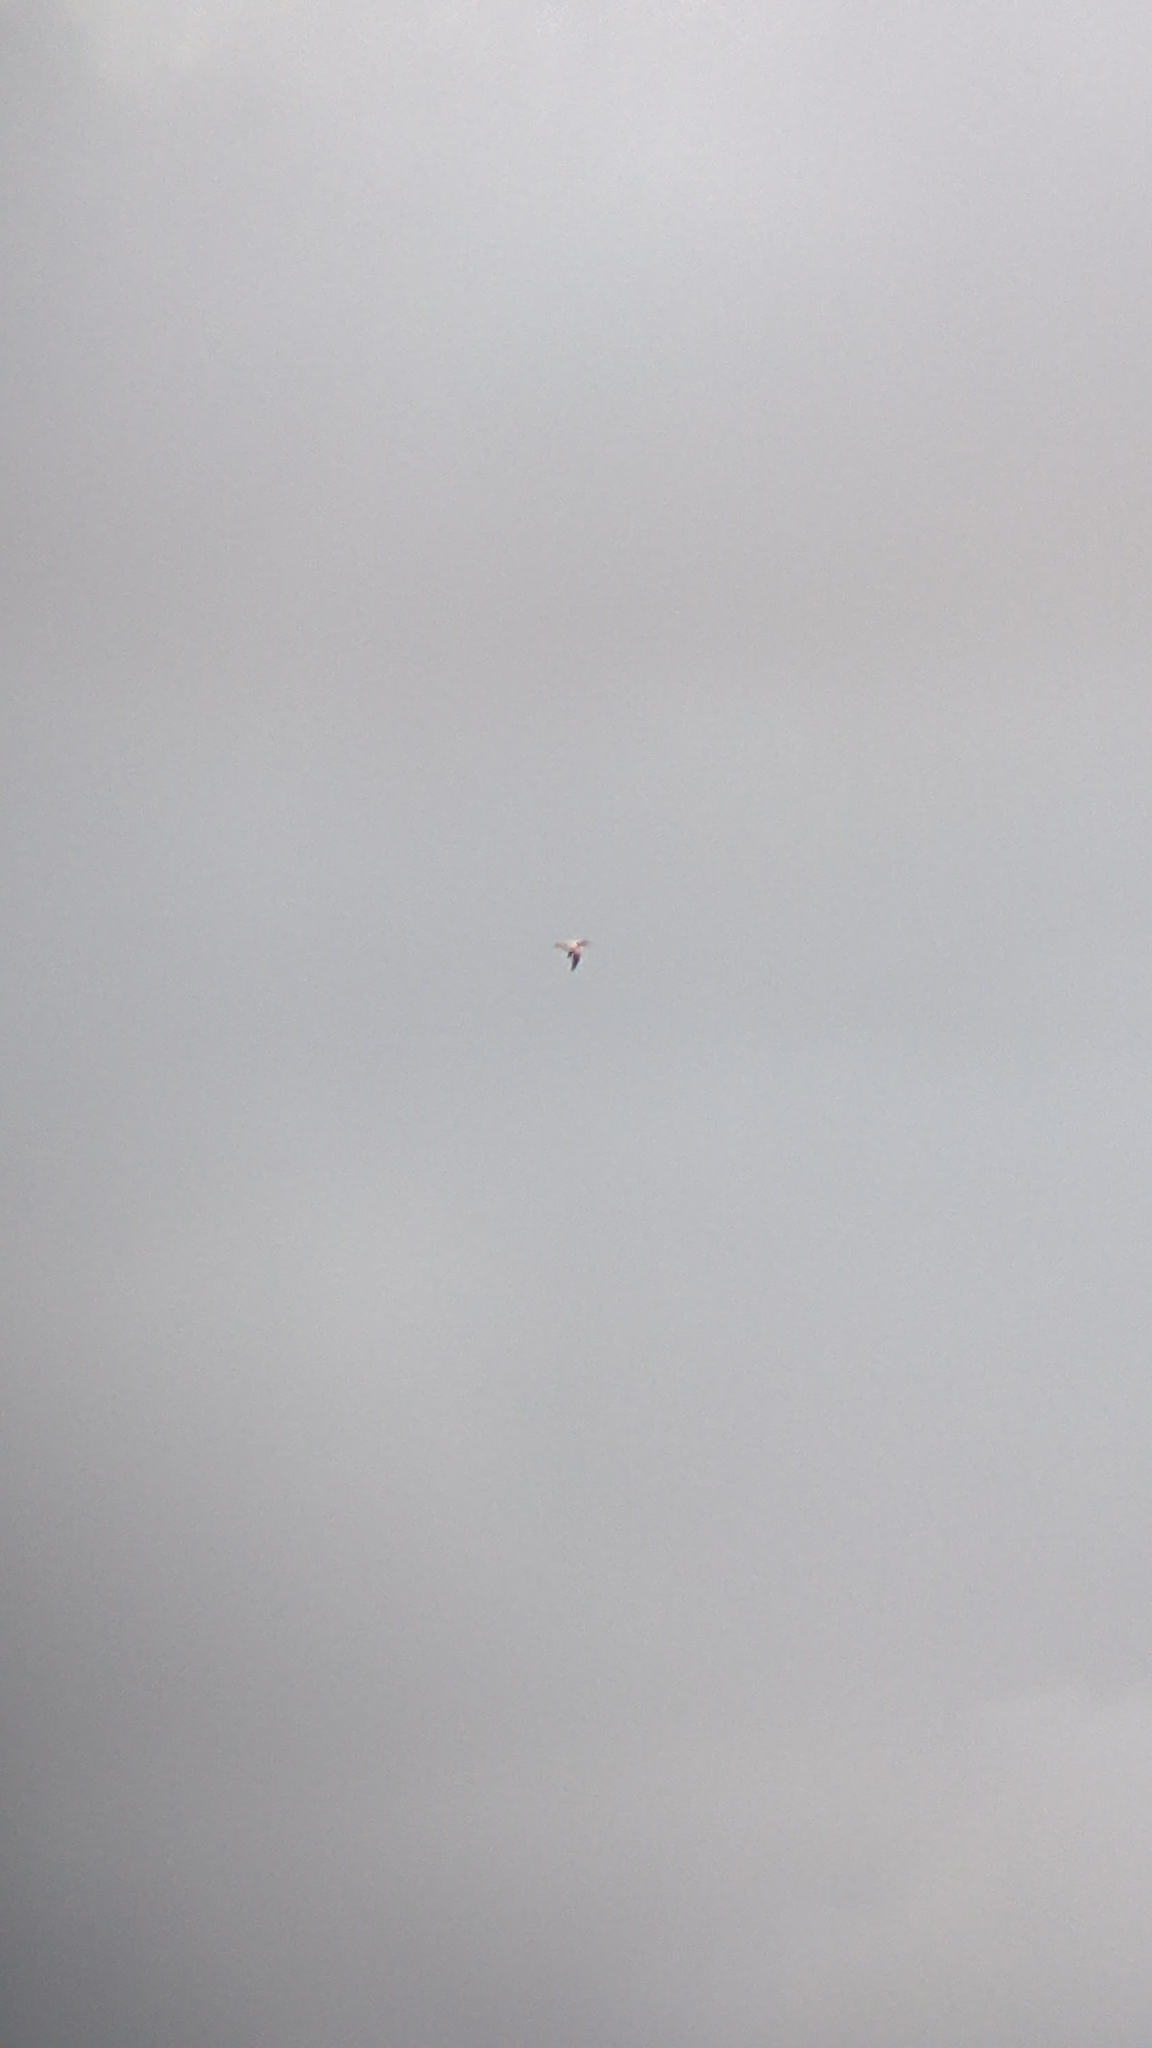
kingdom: Animalia
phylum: Chordata
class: Aves
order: Suliformes
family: Sulidae
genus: Morus
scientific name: Morus serrator
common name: Australasian gannet
